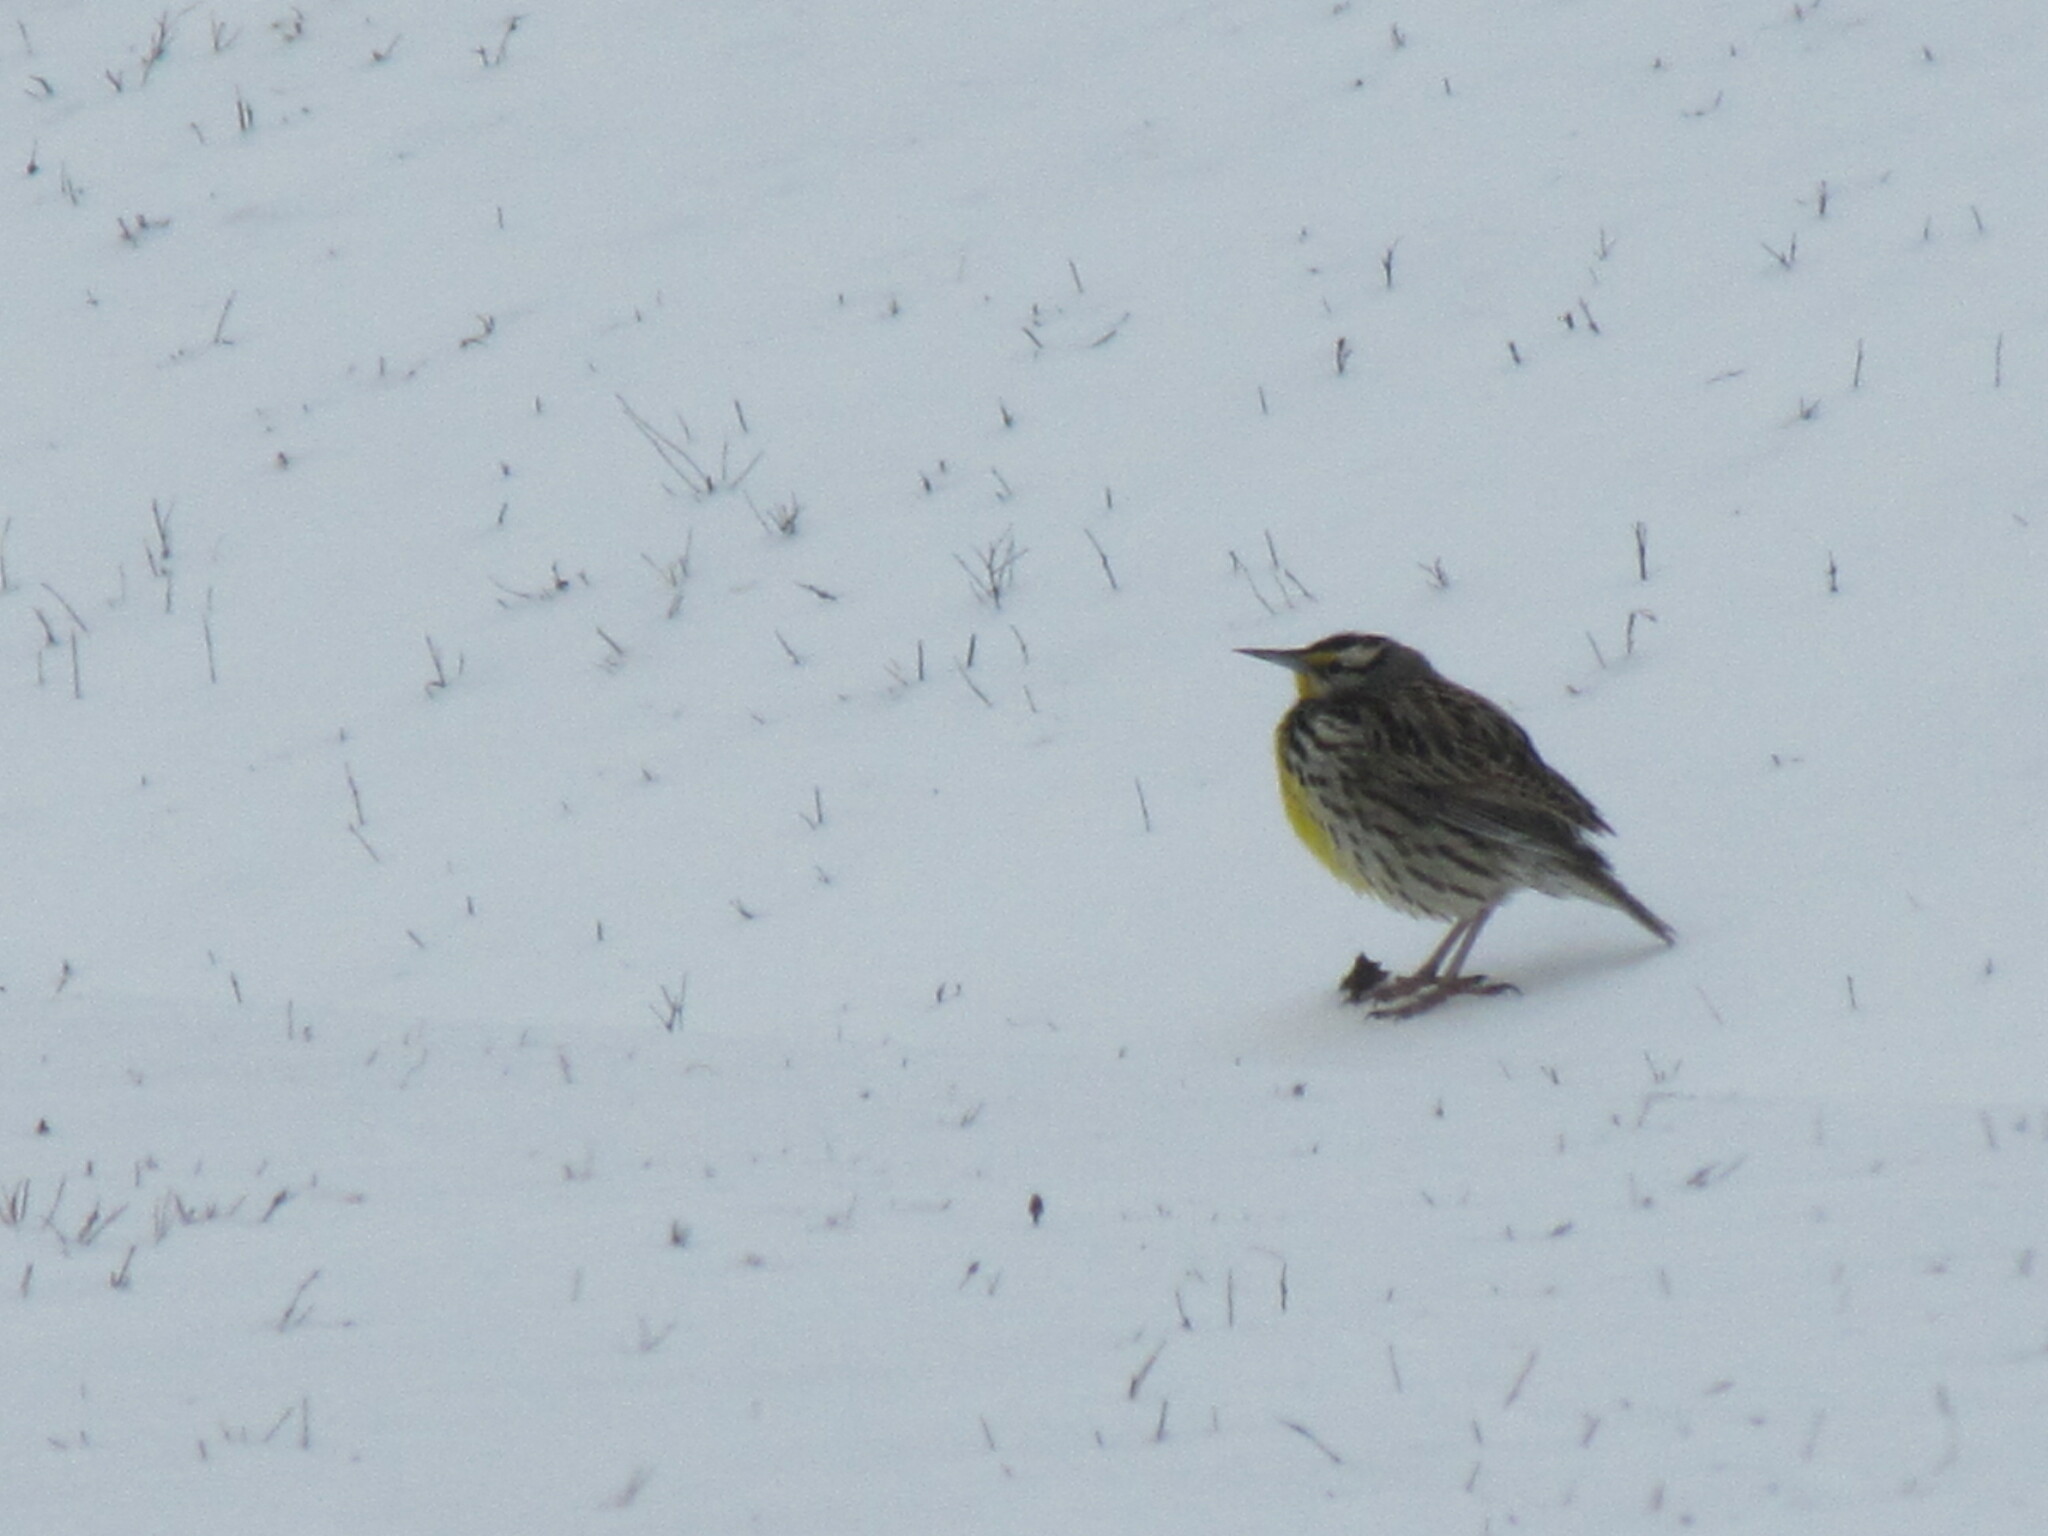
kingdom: Animalia
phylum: Chordata
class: Aves
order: Passeriformes
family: Icteridae
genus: Sturnella
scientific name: Sturnella magna
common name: Eastern meadowlark
